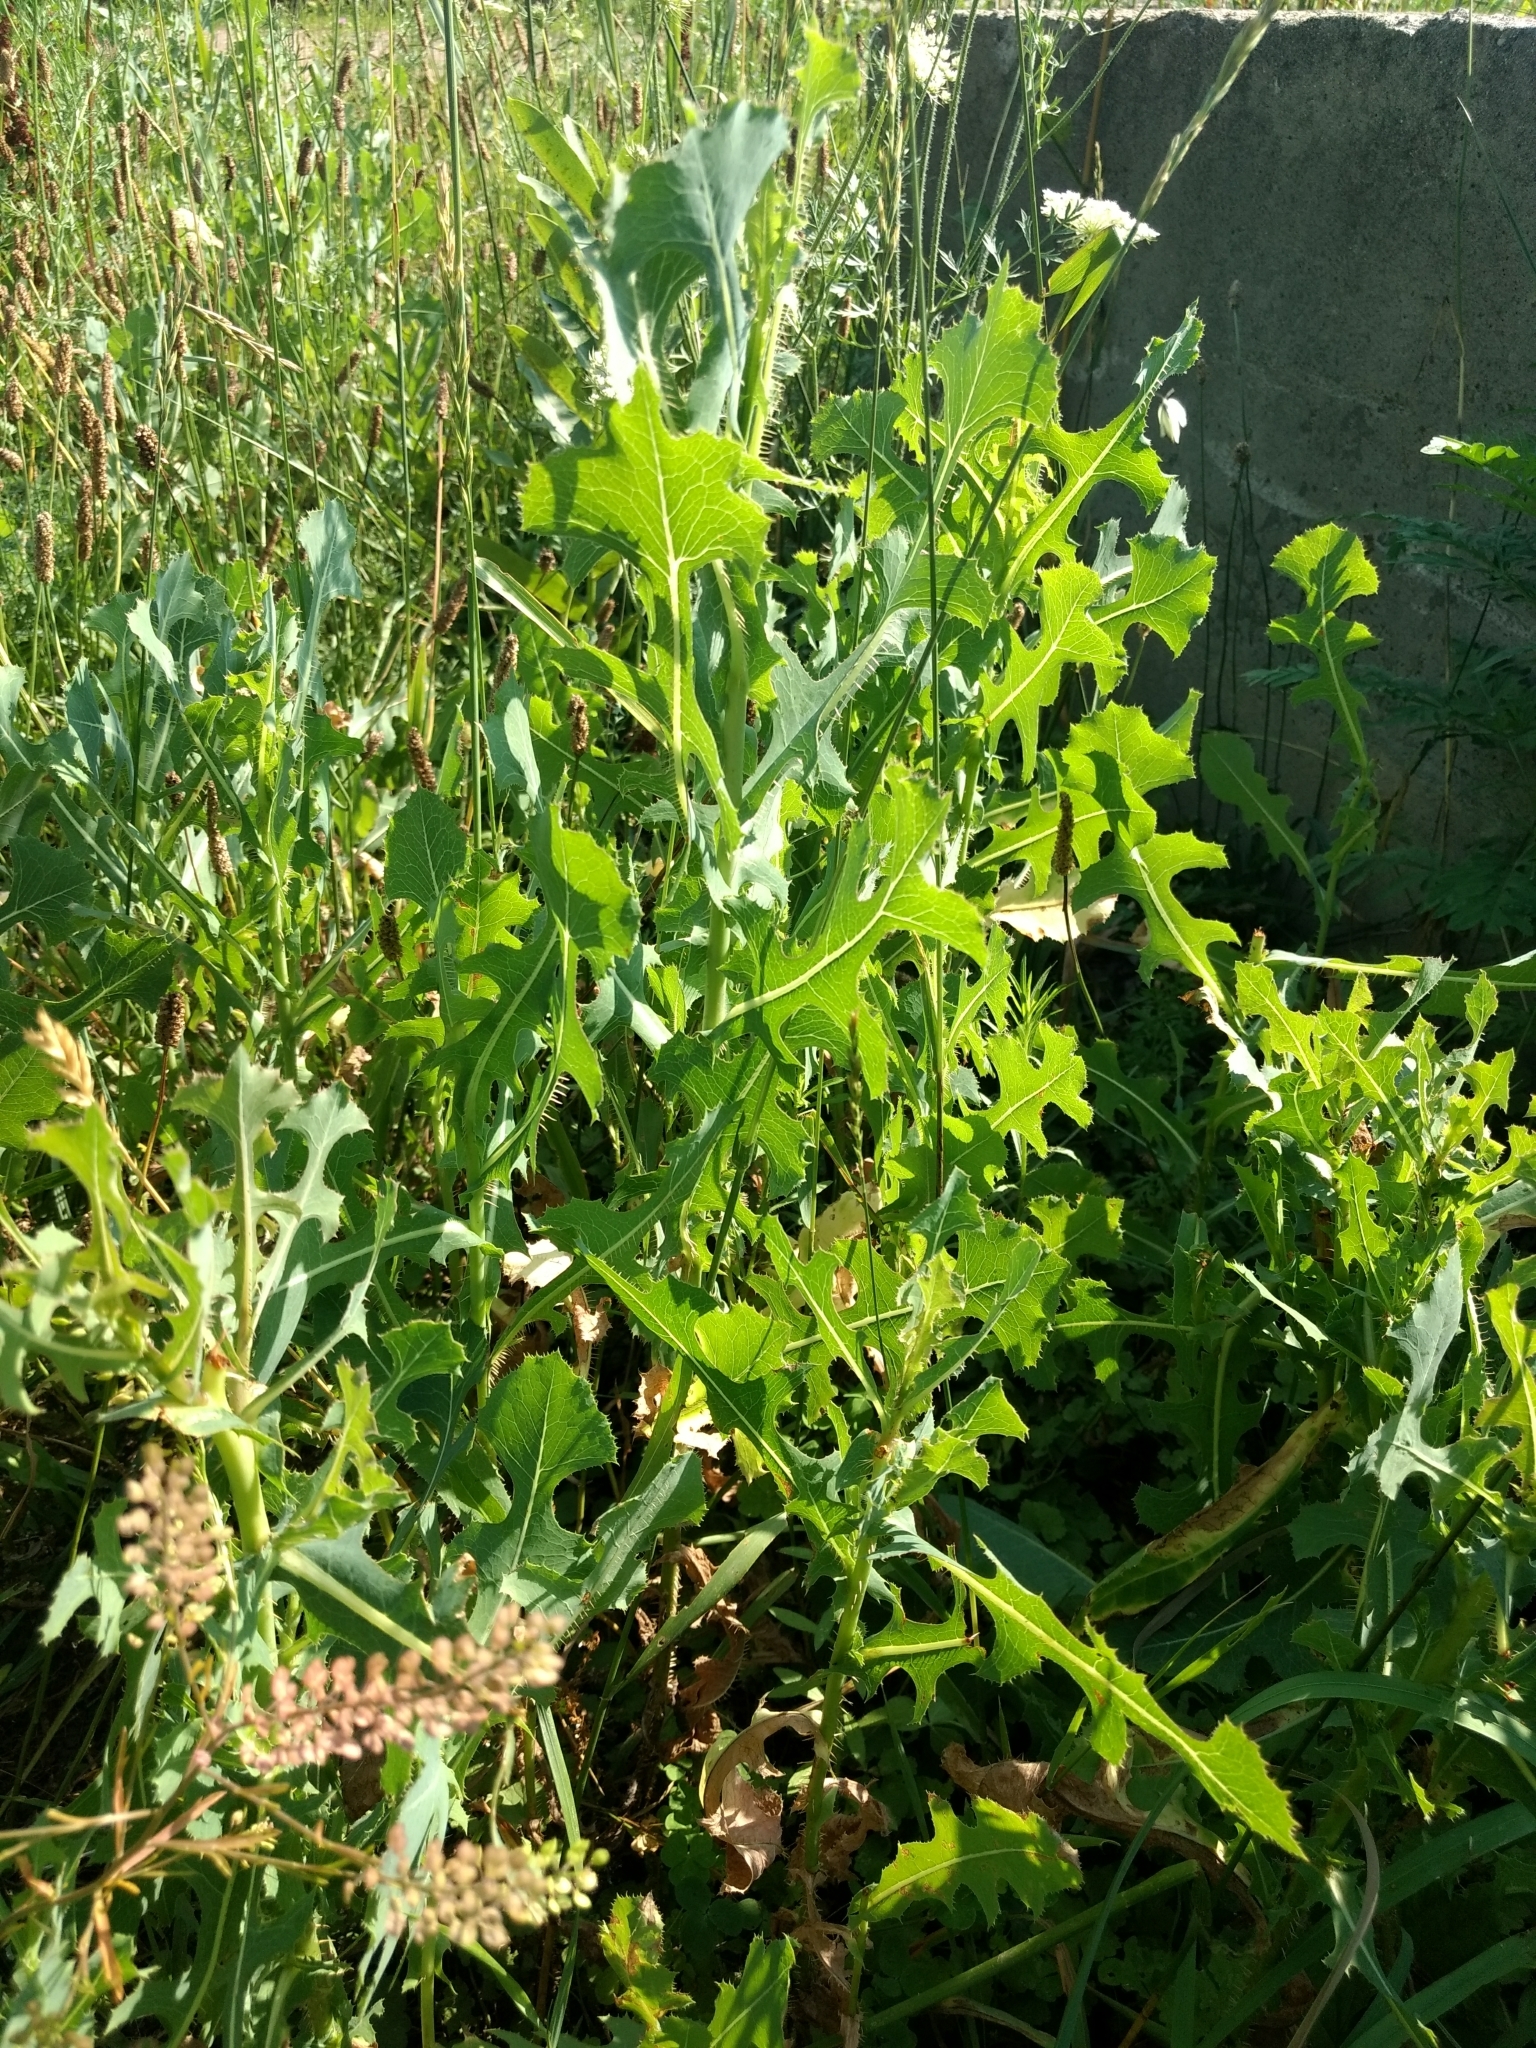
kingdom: Plantae
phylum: Tracheophyta
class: Magnoliopsida
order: Asterales
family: Asteraceae
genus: Lactuca
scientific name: Lactuca serriola
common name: Prickly lettuce
